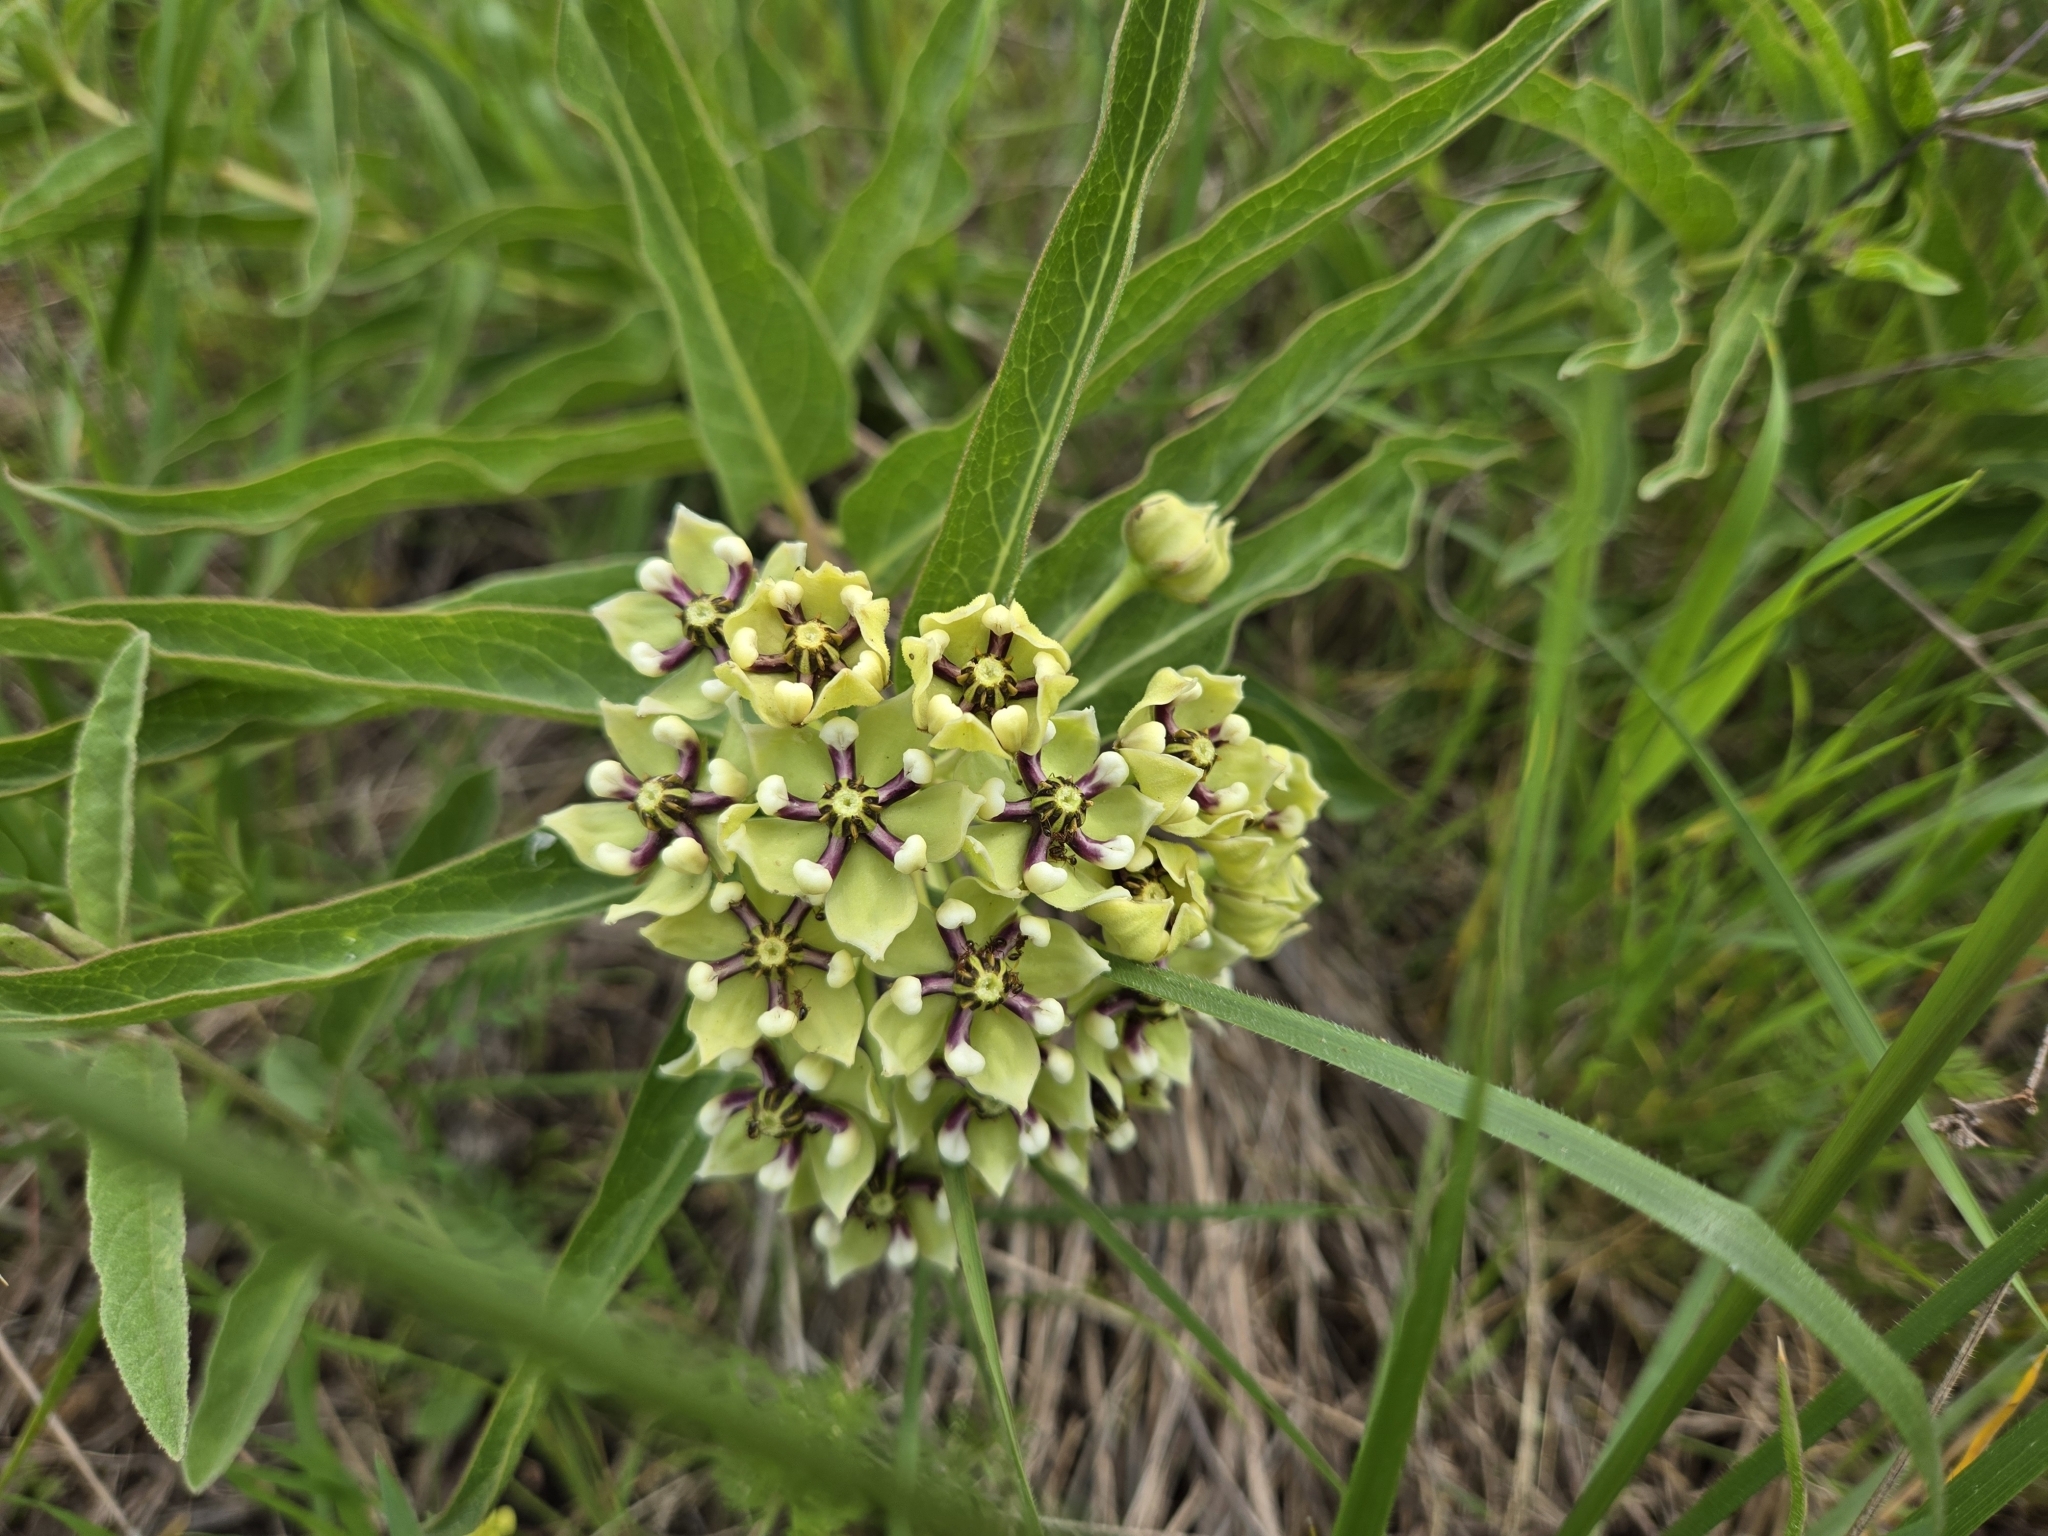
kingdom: Plantae
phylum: Tracheophyta
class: Magnoliopsida
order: Gentianales
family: Apocynaceae
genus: Asclepias
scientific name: Asclepias asperula
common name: Antelope horns
